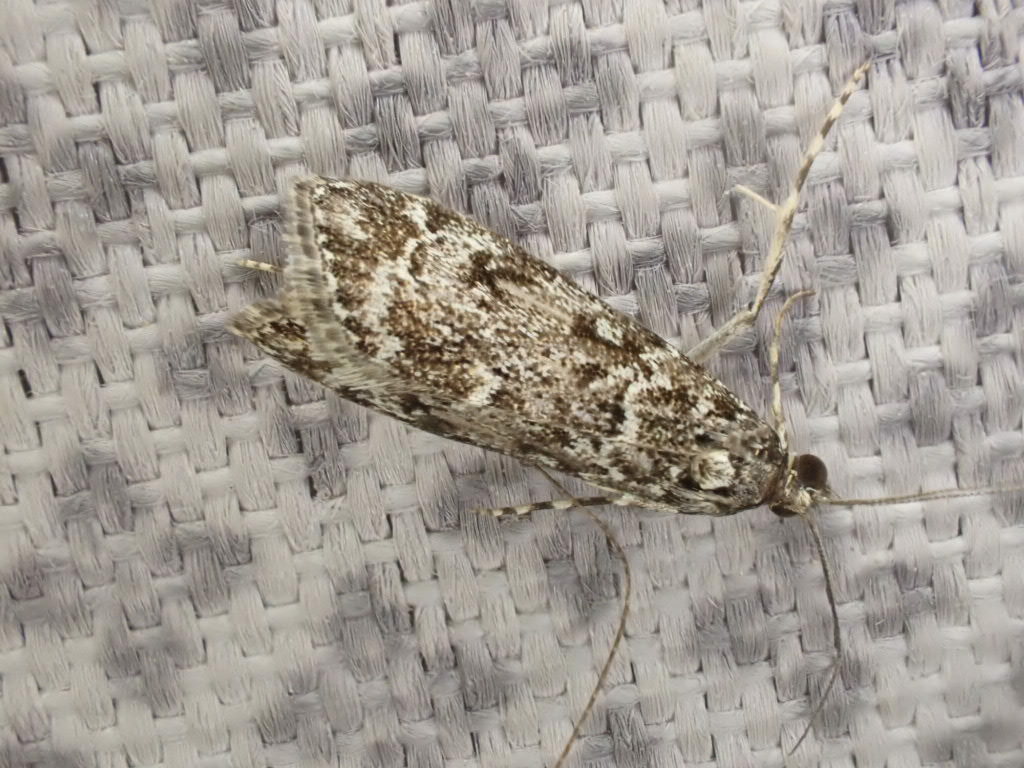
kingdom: Animalia
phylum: Arthropoda
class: Insecta
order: Lepidoptera
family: Crambidae
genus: Eudonia
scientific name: Eudonia philerga
